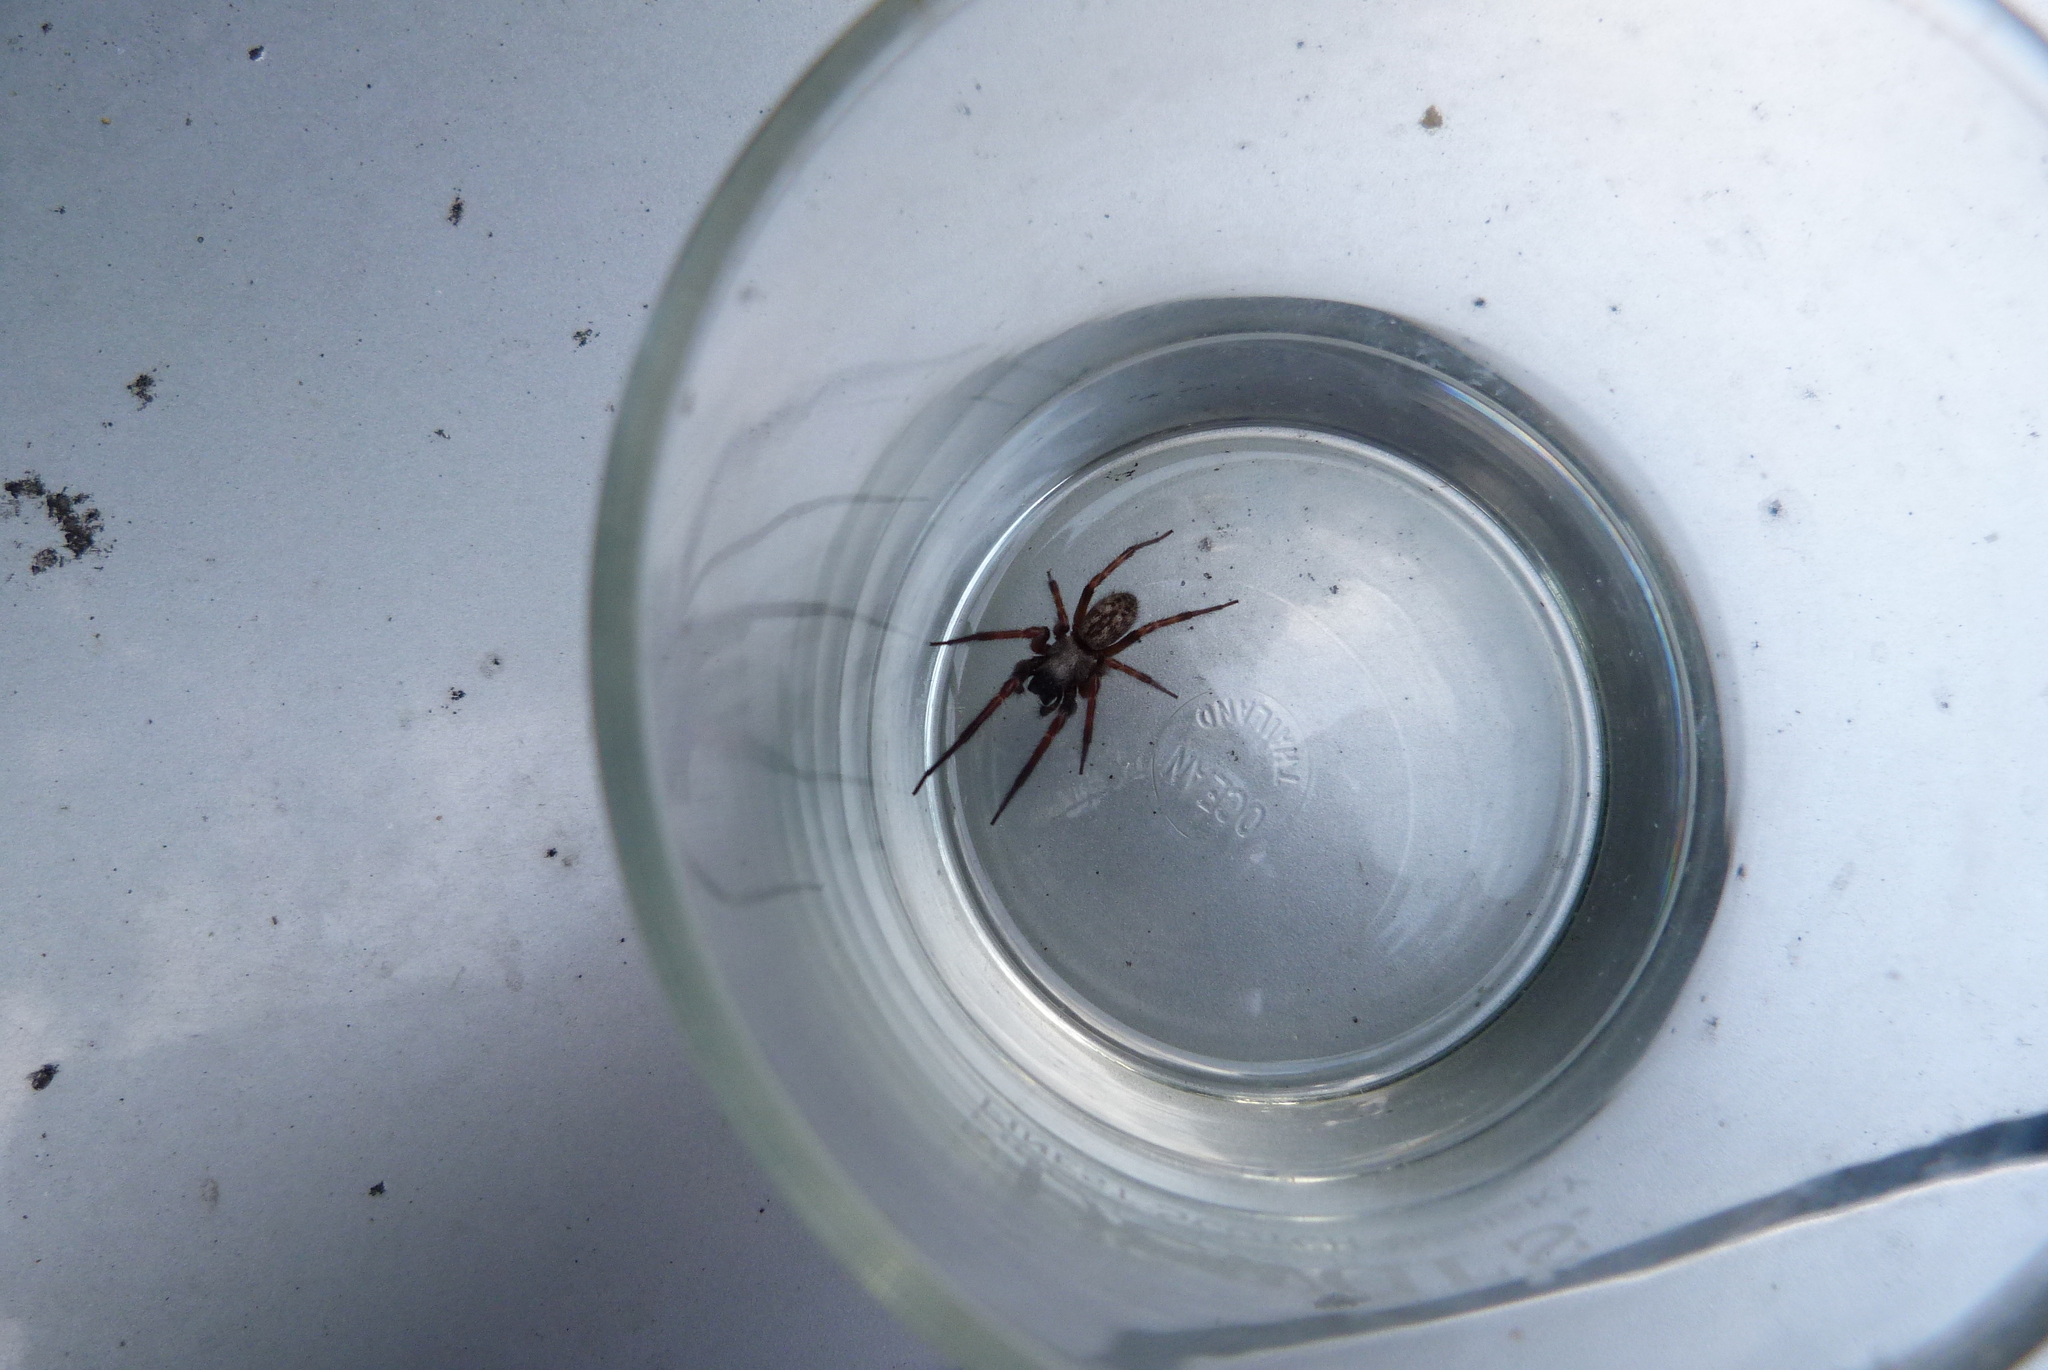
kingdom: Animalia
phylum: Arthropoda
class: Arachnida
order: Araneae
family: Desidae
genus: Badumna
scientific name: Badumna longinqua
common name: Gray house spider
